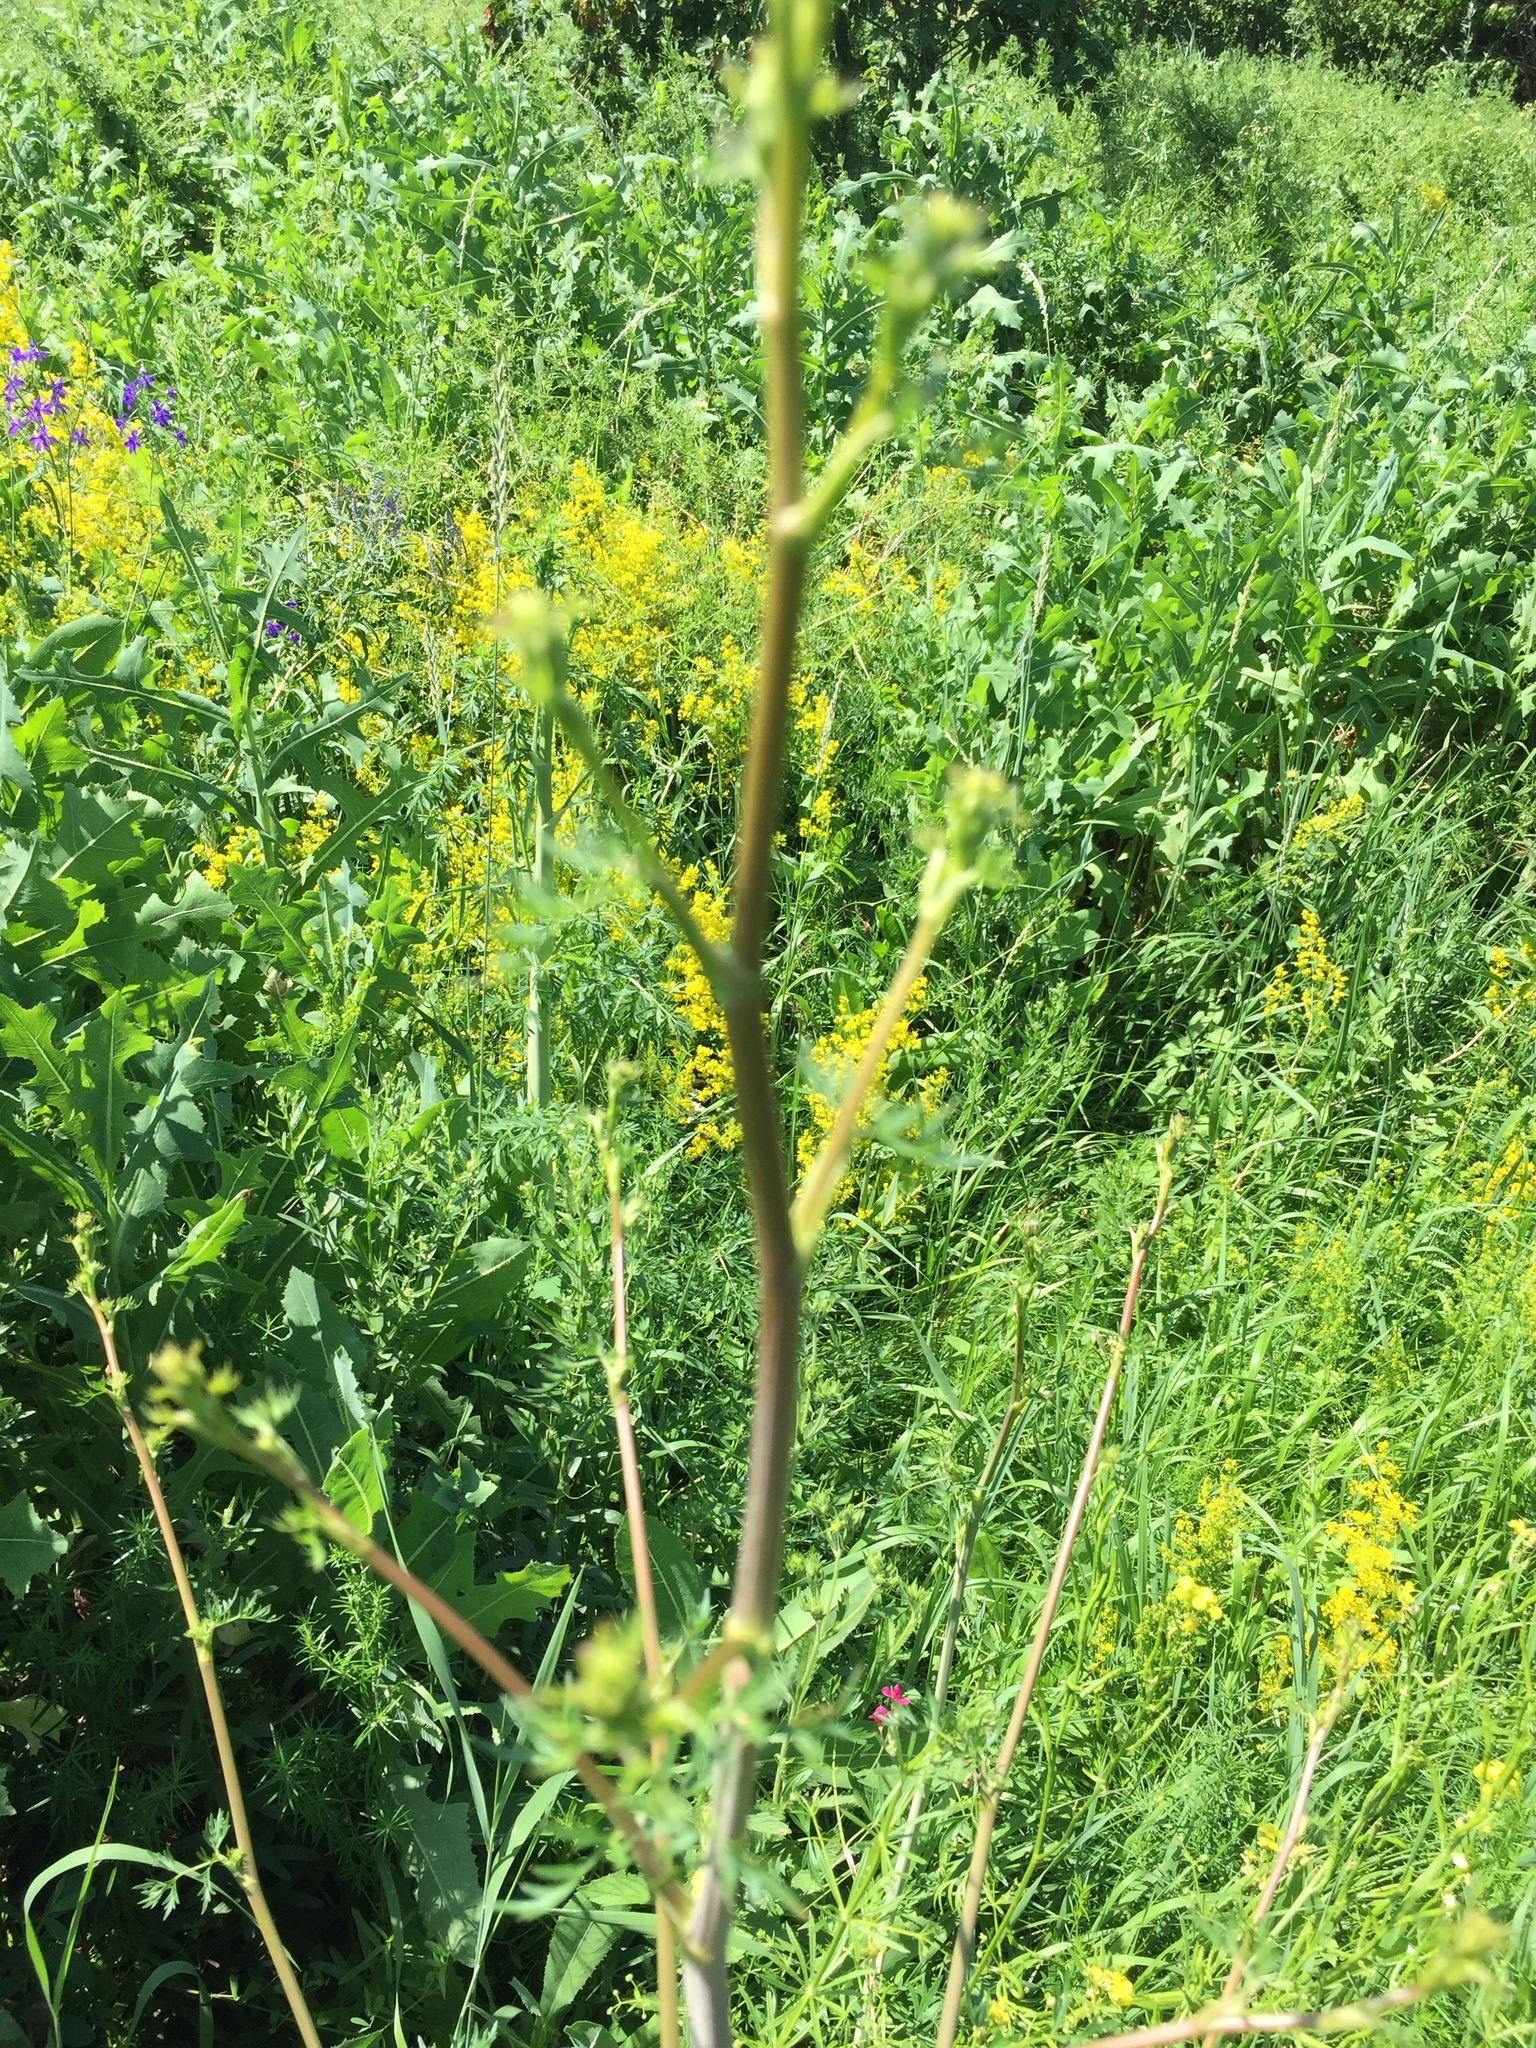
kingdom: Plantae
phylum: Tracheophyta
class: Magnoliopsida
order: Apiales
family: Apiaceae
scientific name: Apiaceae
